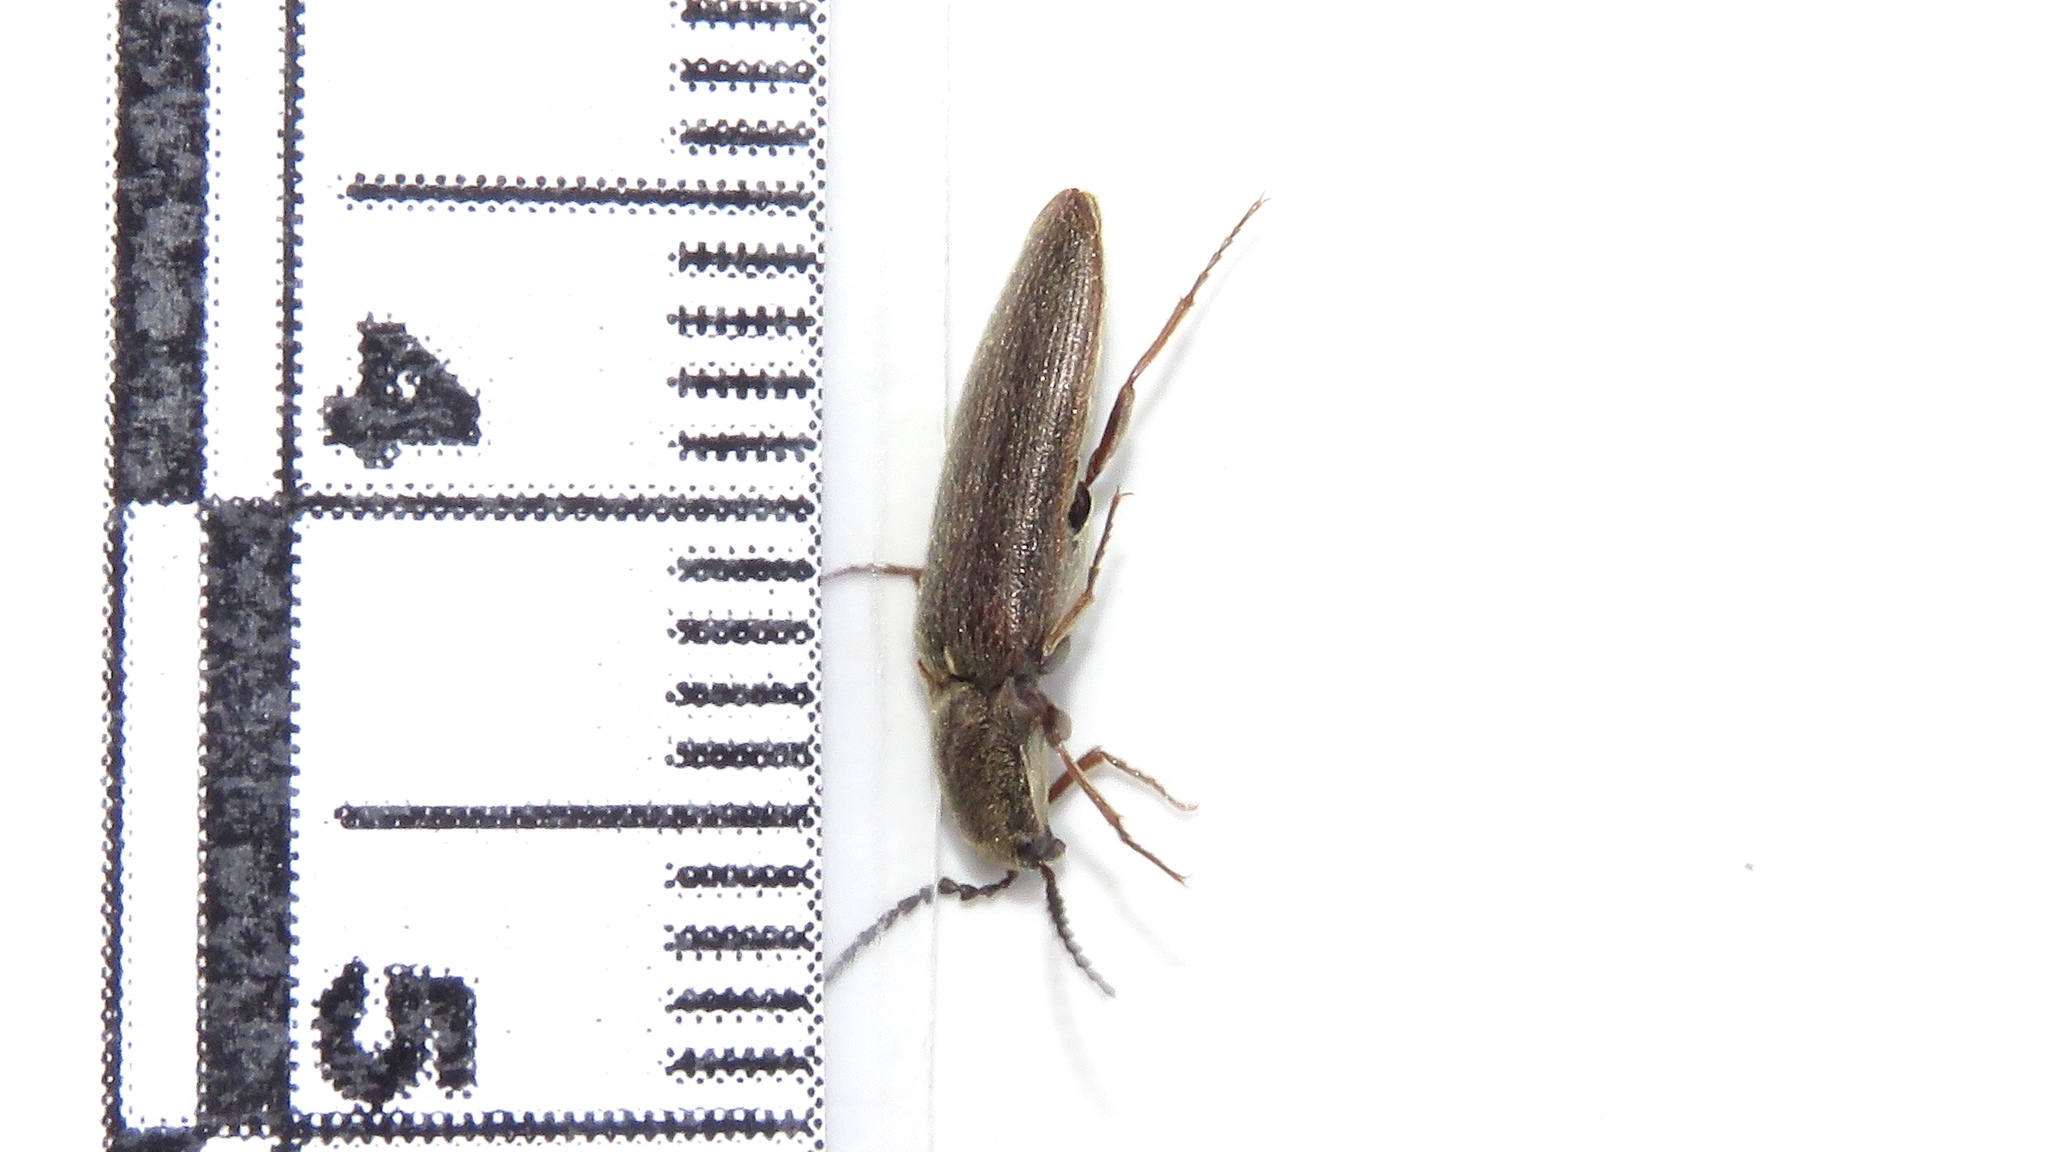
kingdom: Animalia
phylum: Arthropoda
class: Insecta
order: Coleoptera
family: Elateridae
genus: Sylvanelater
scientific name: Sylvanelater cylindriformis
